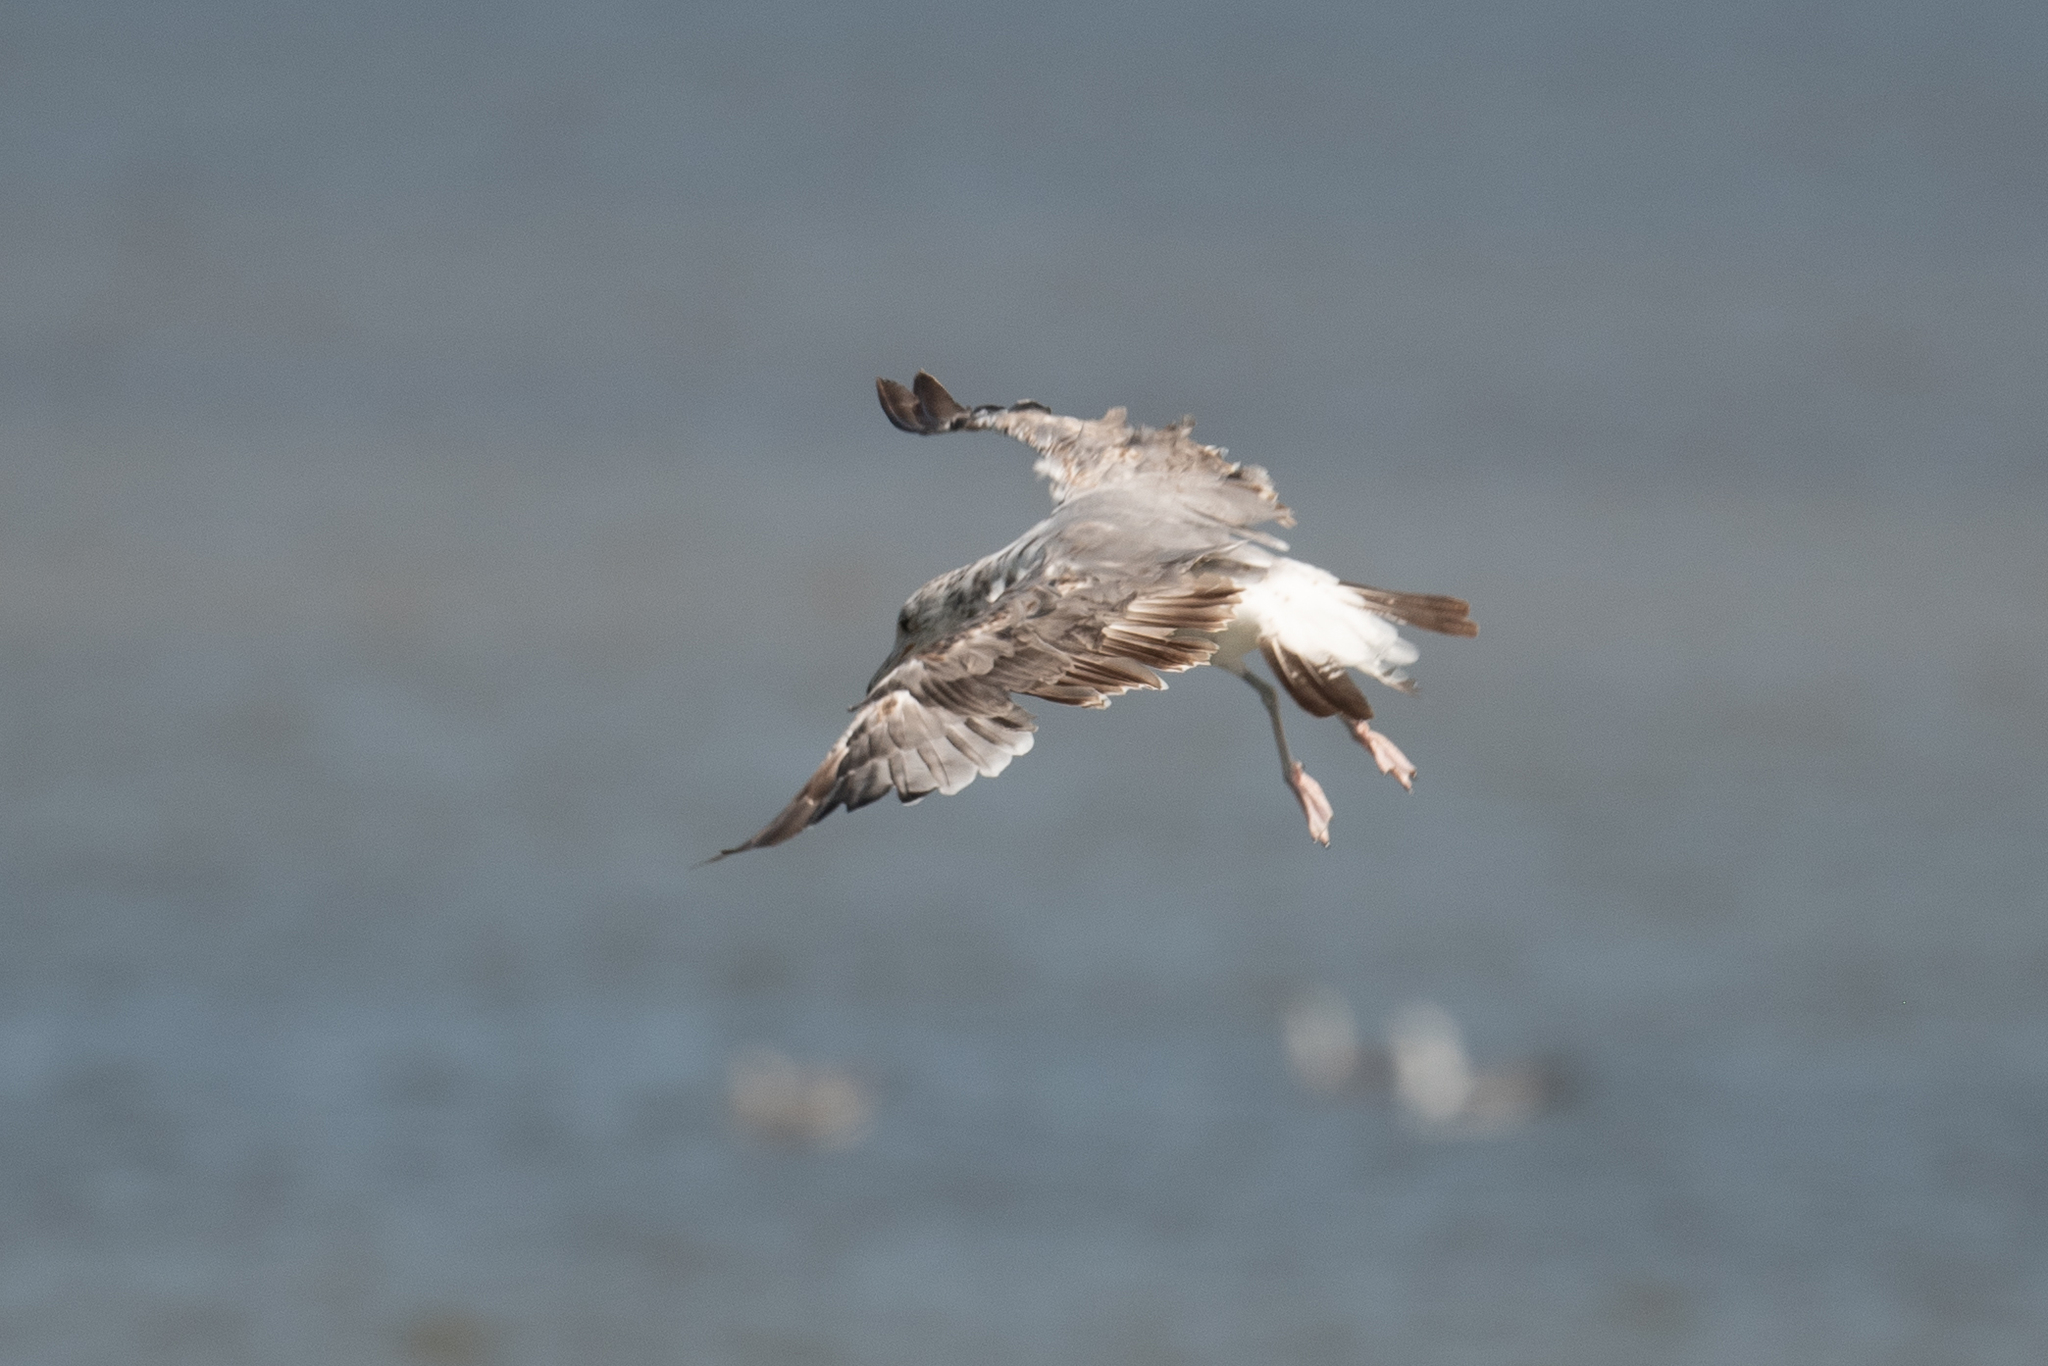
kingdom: Animalia
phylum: Chordata
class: Aves
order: Charadriiformes
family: Laridae
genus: Larus
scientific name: Larus californicus
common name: California gull
